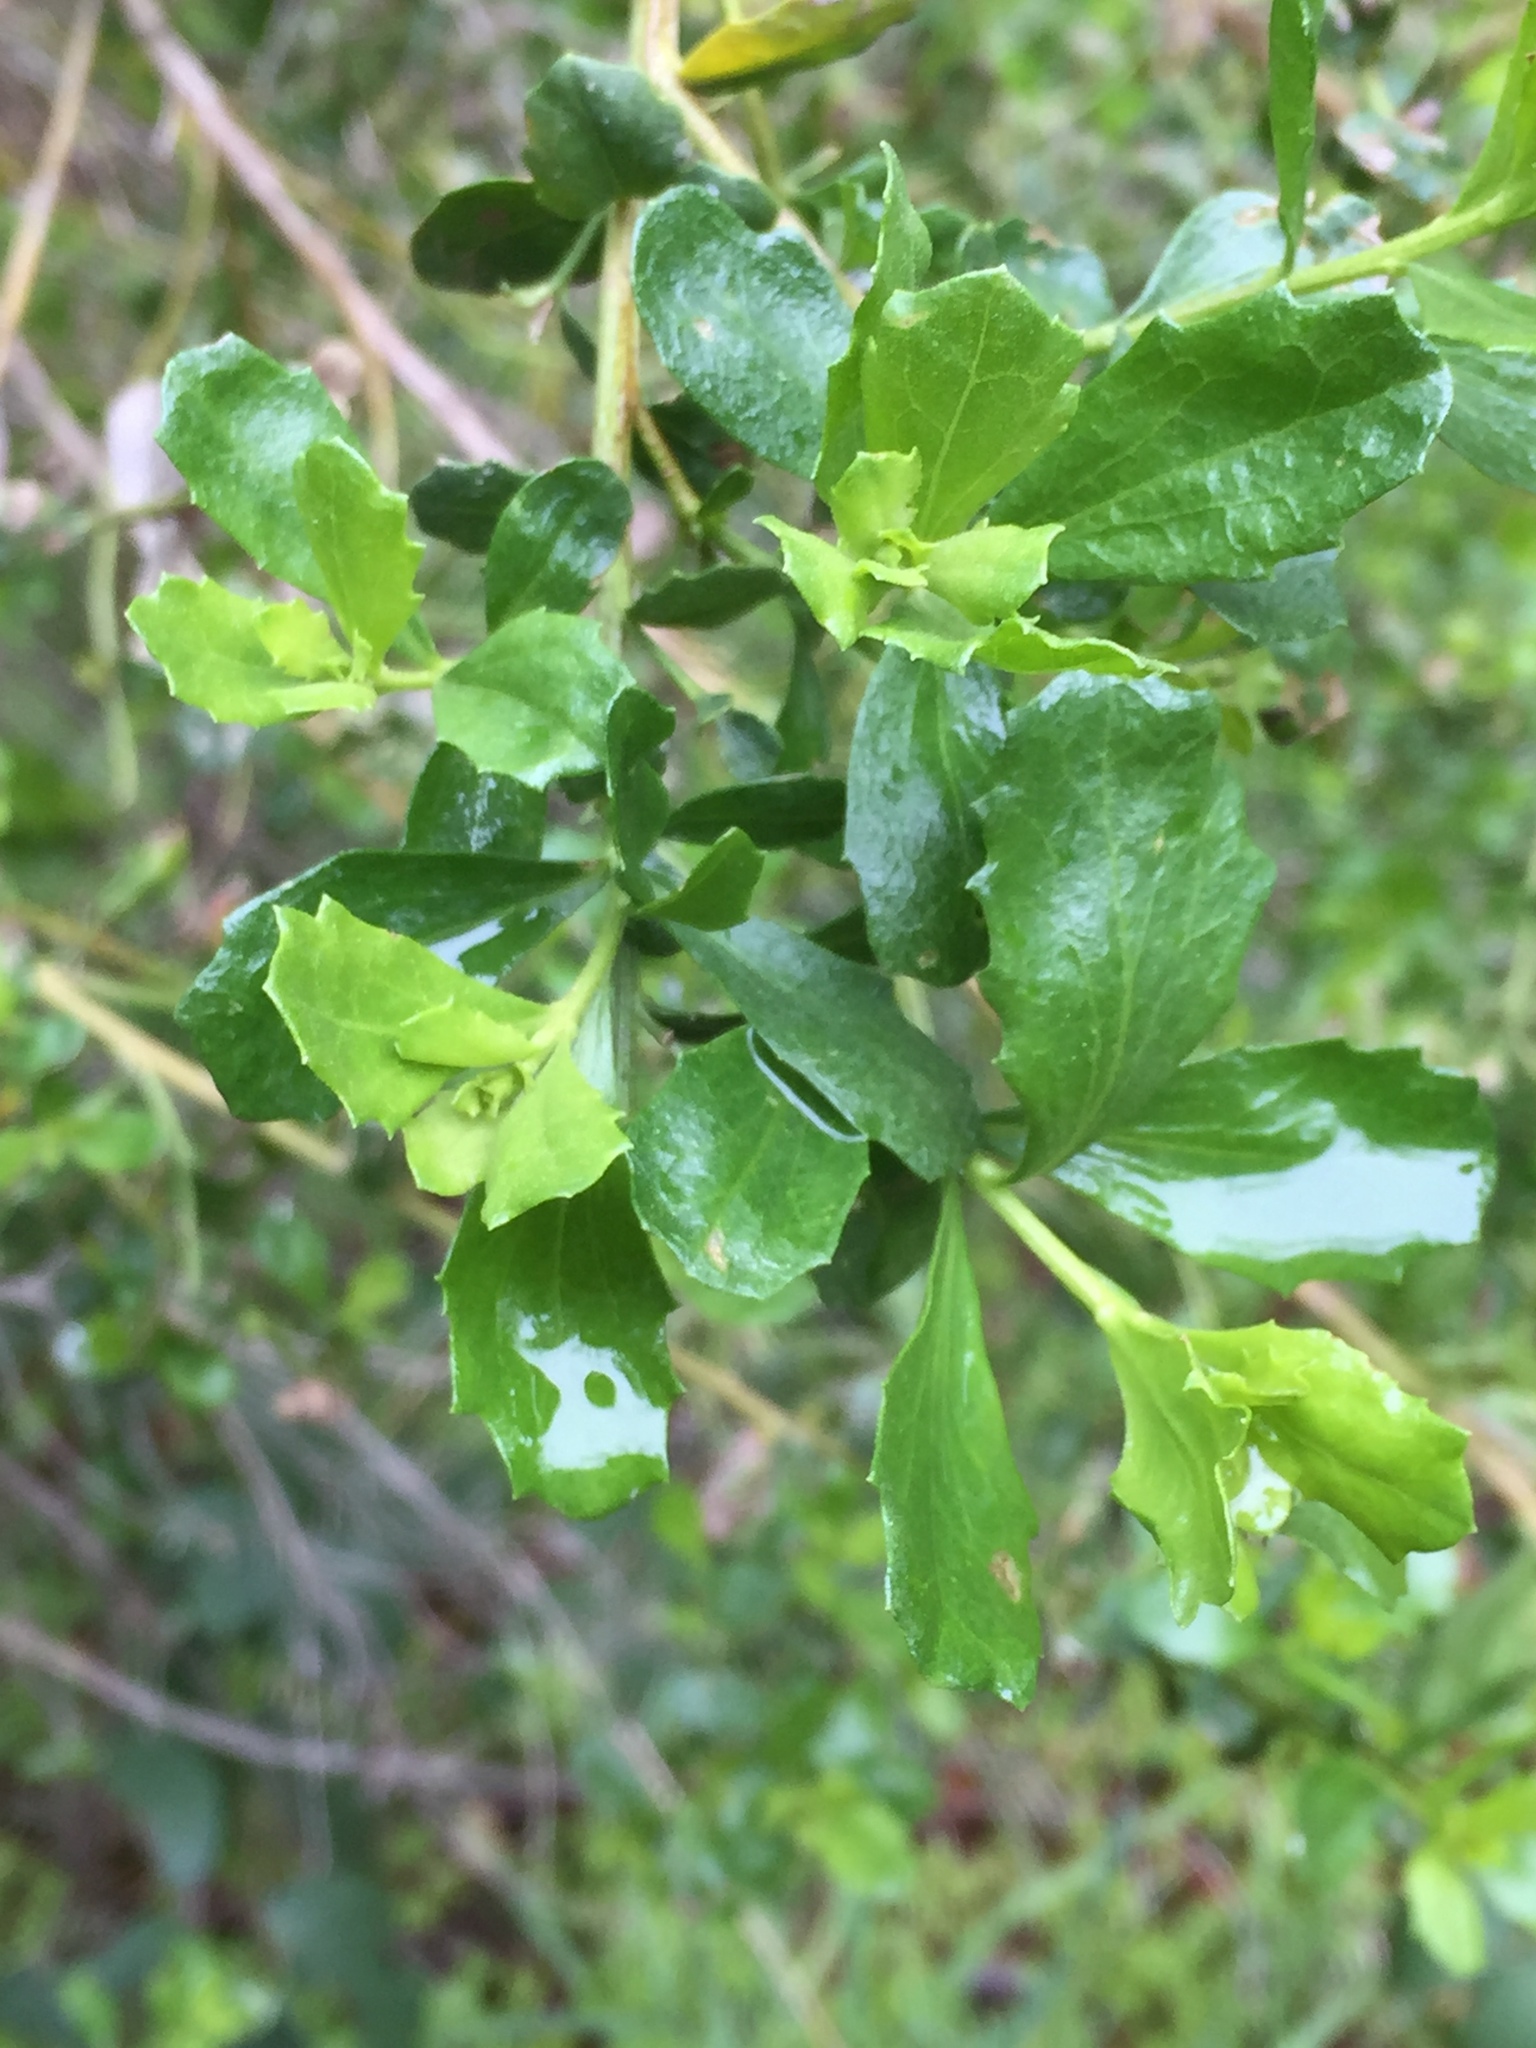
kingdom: Plantae
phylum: Tracheophyta
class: Magnoliopsida
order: Asterales
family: Asteraceae
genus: Baccharis
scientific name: Baccharis pilularis
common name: Coyotebrush
